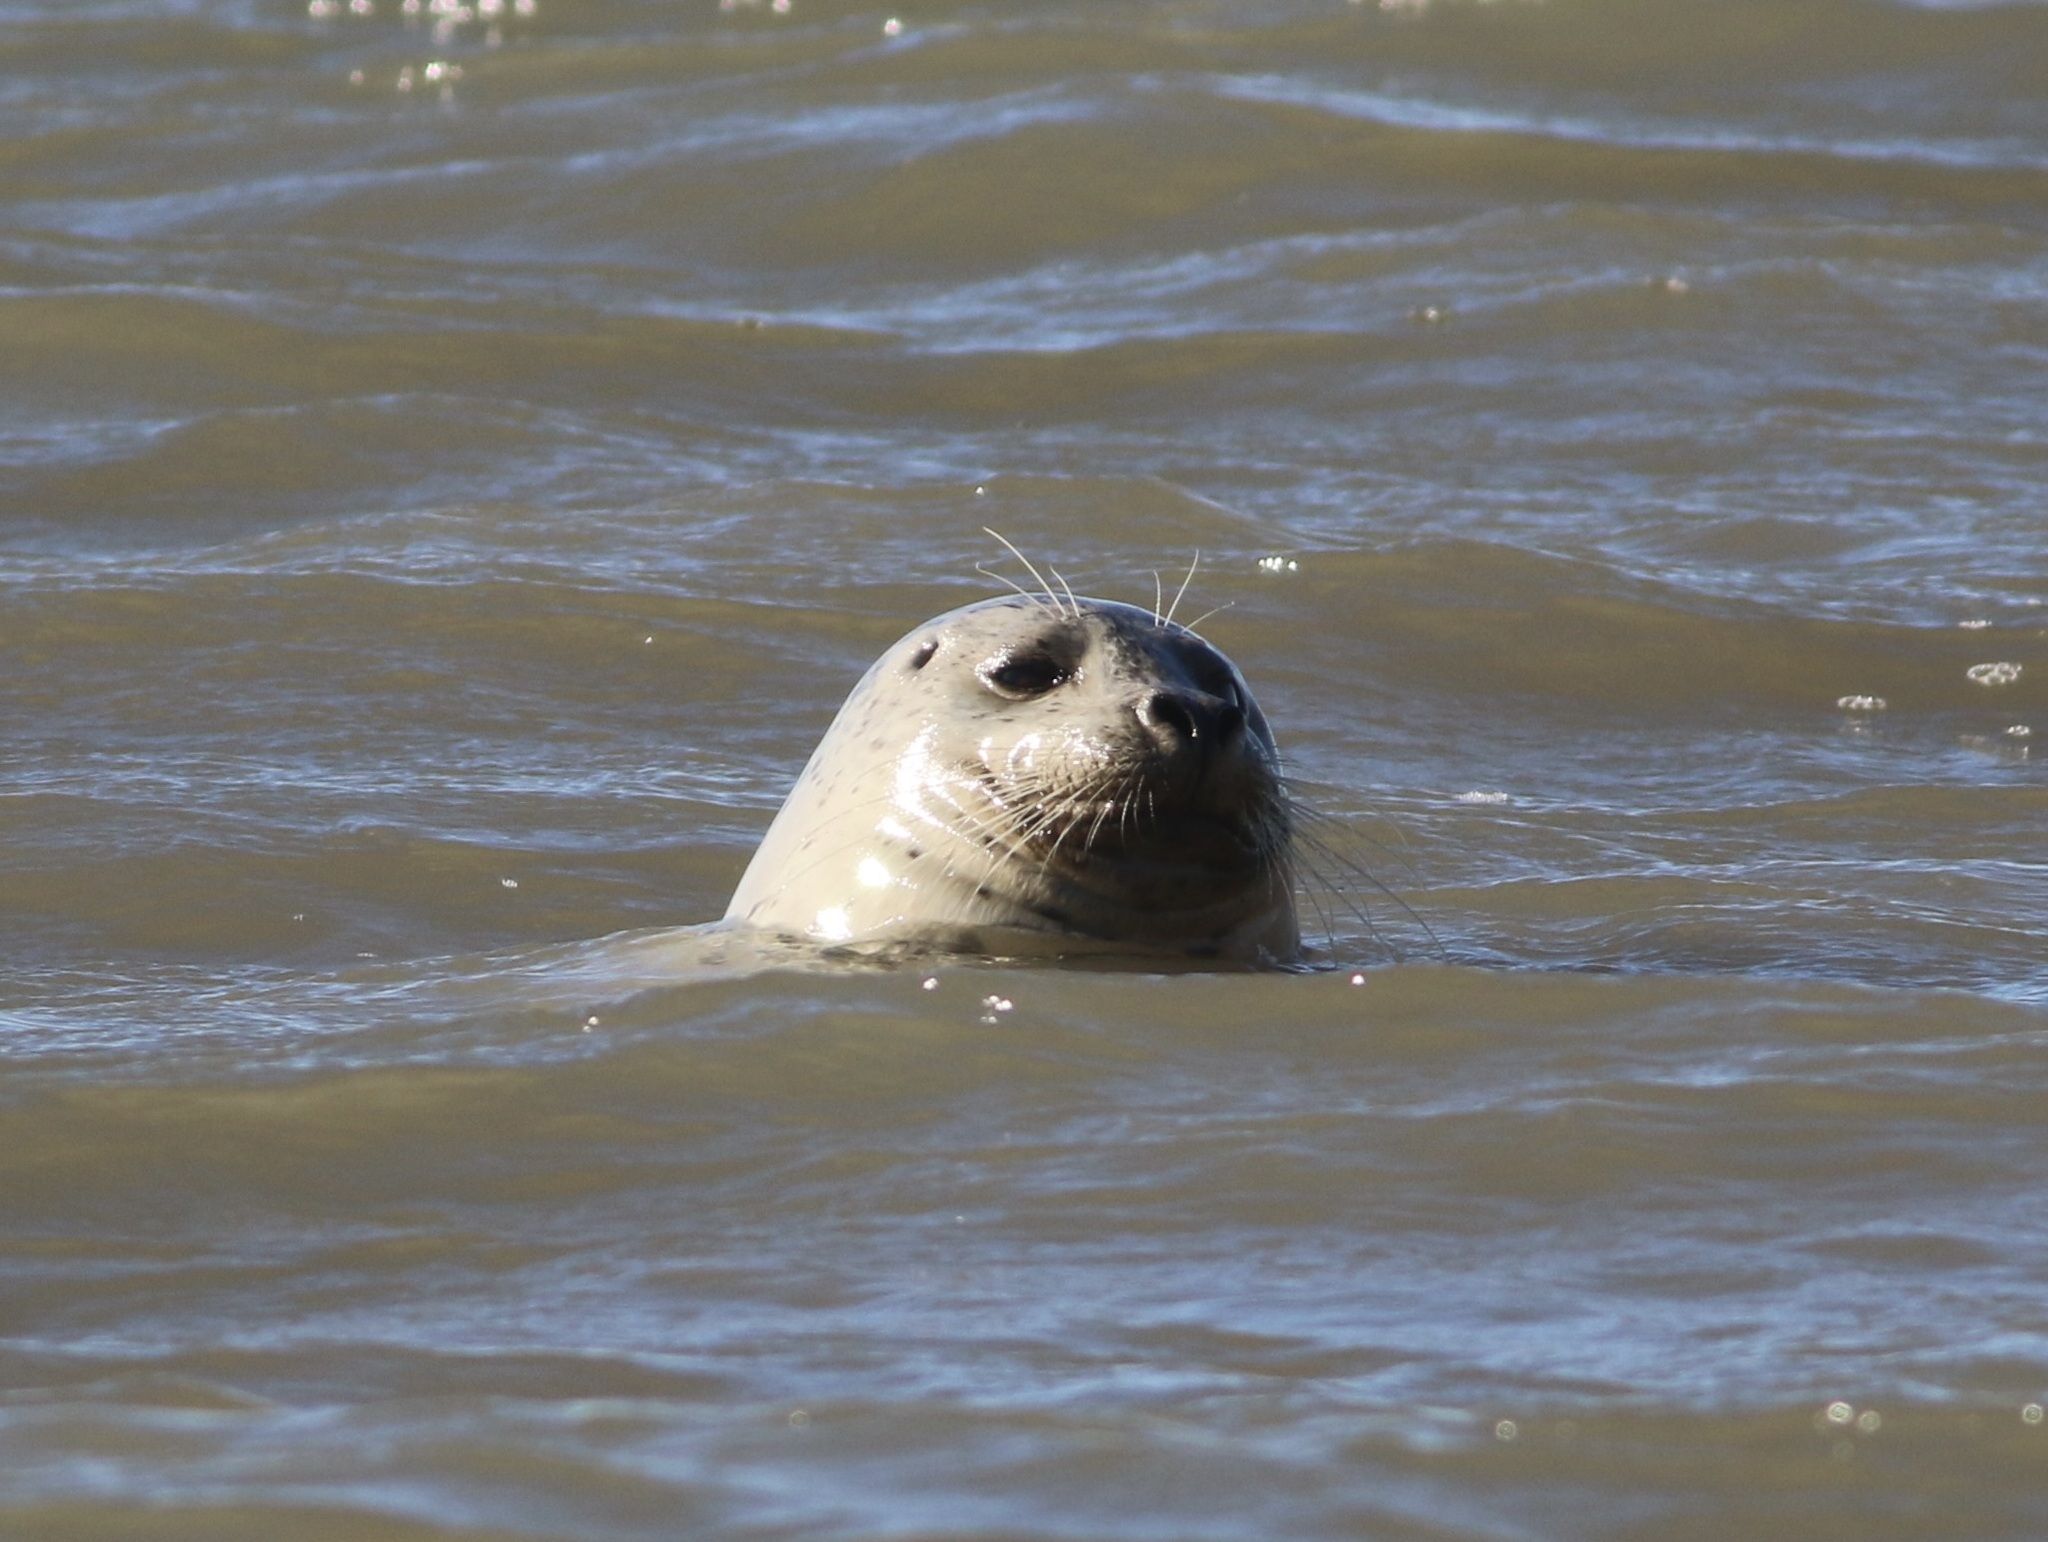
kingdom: Animalia
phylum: Chordata
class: Mammalia
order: Carnivora
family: Phocidae
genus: Phoca
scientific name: Phoca vitulina
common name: Harbor seal
